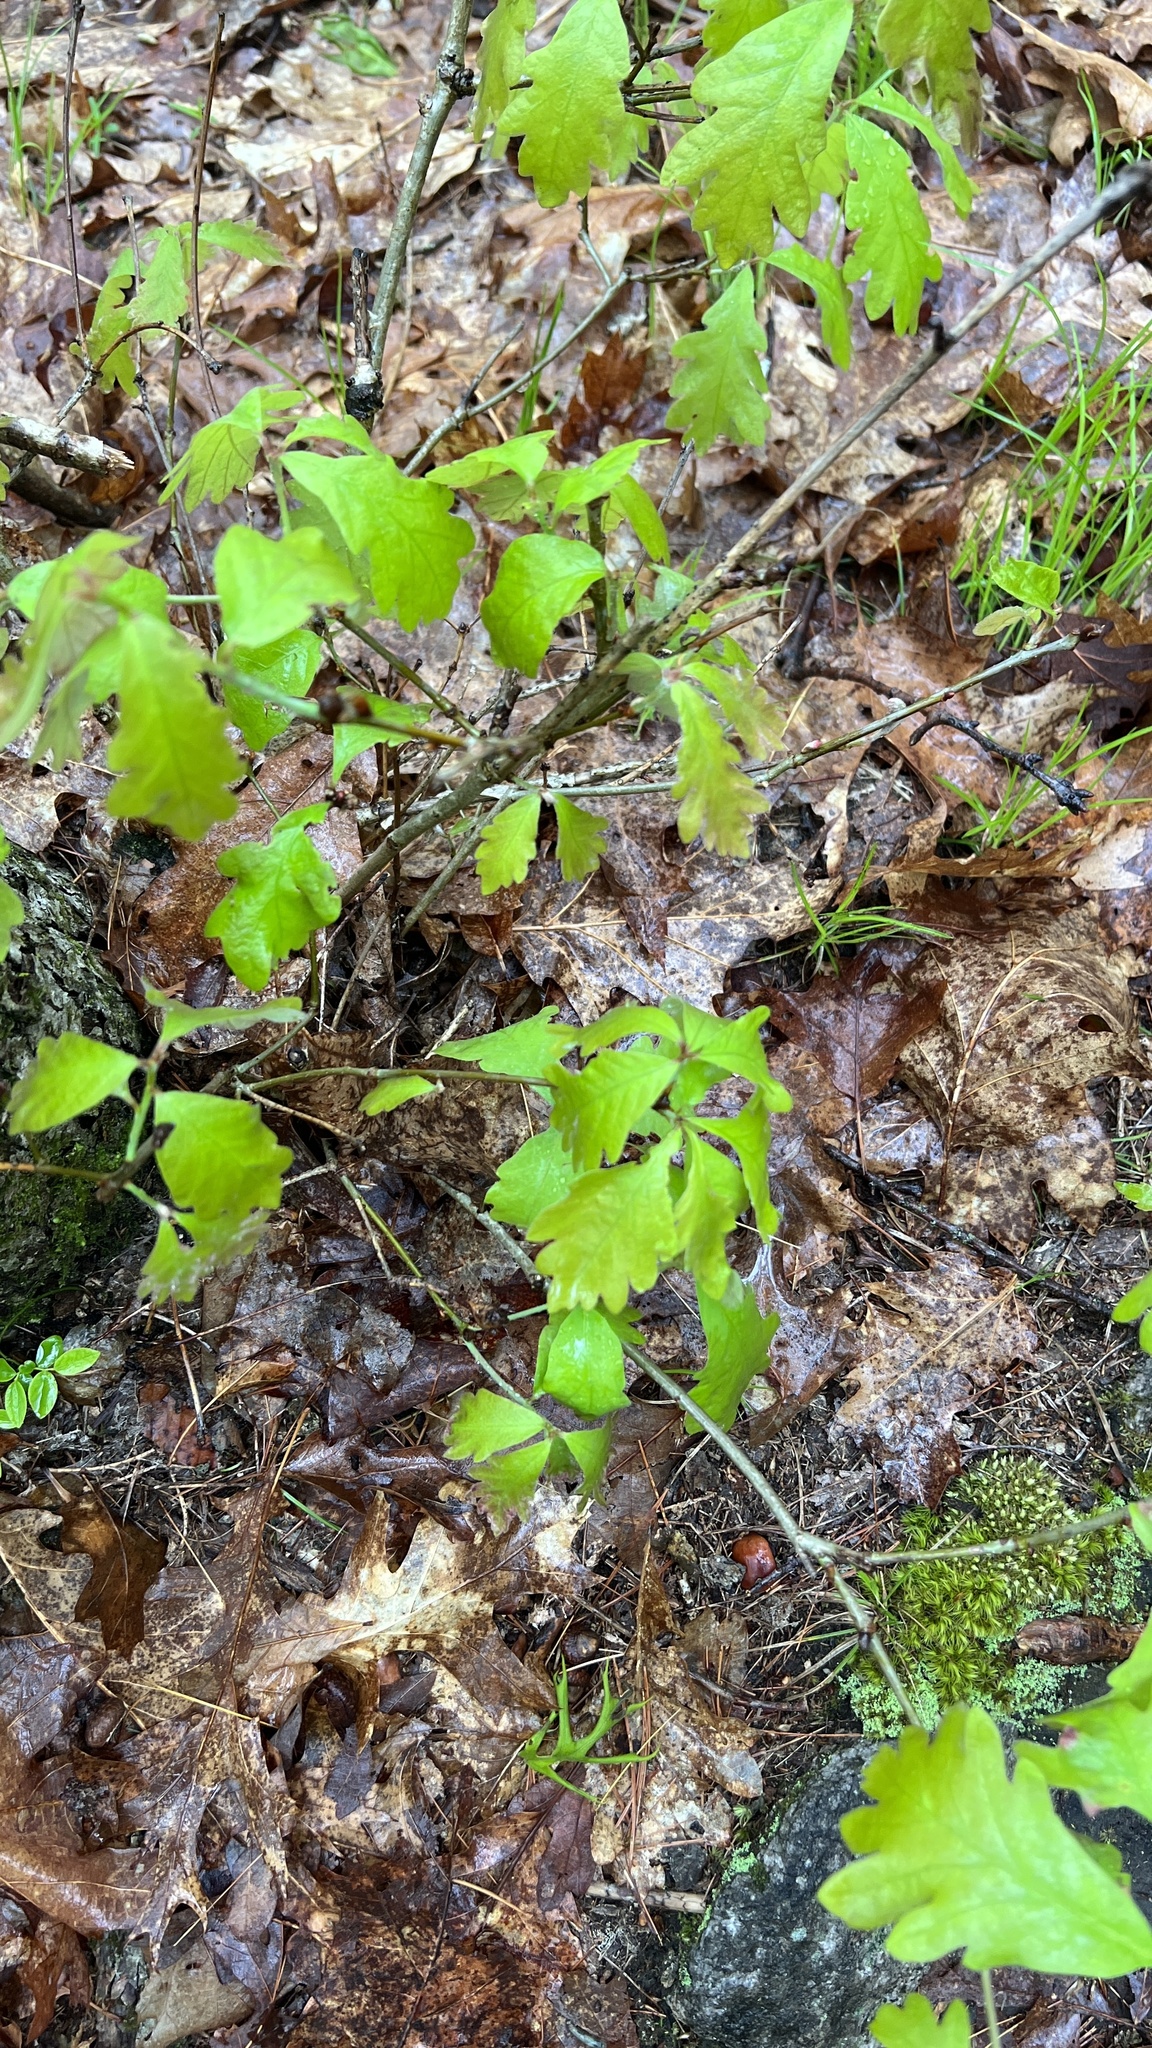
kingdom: Plantae
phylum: Tracheophyta
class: Magnoliopsida
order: Fagales
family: Fagaceae
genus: Quercus
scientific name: Quercus alba
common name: White oak
